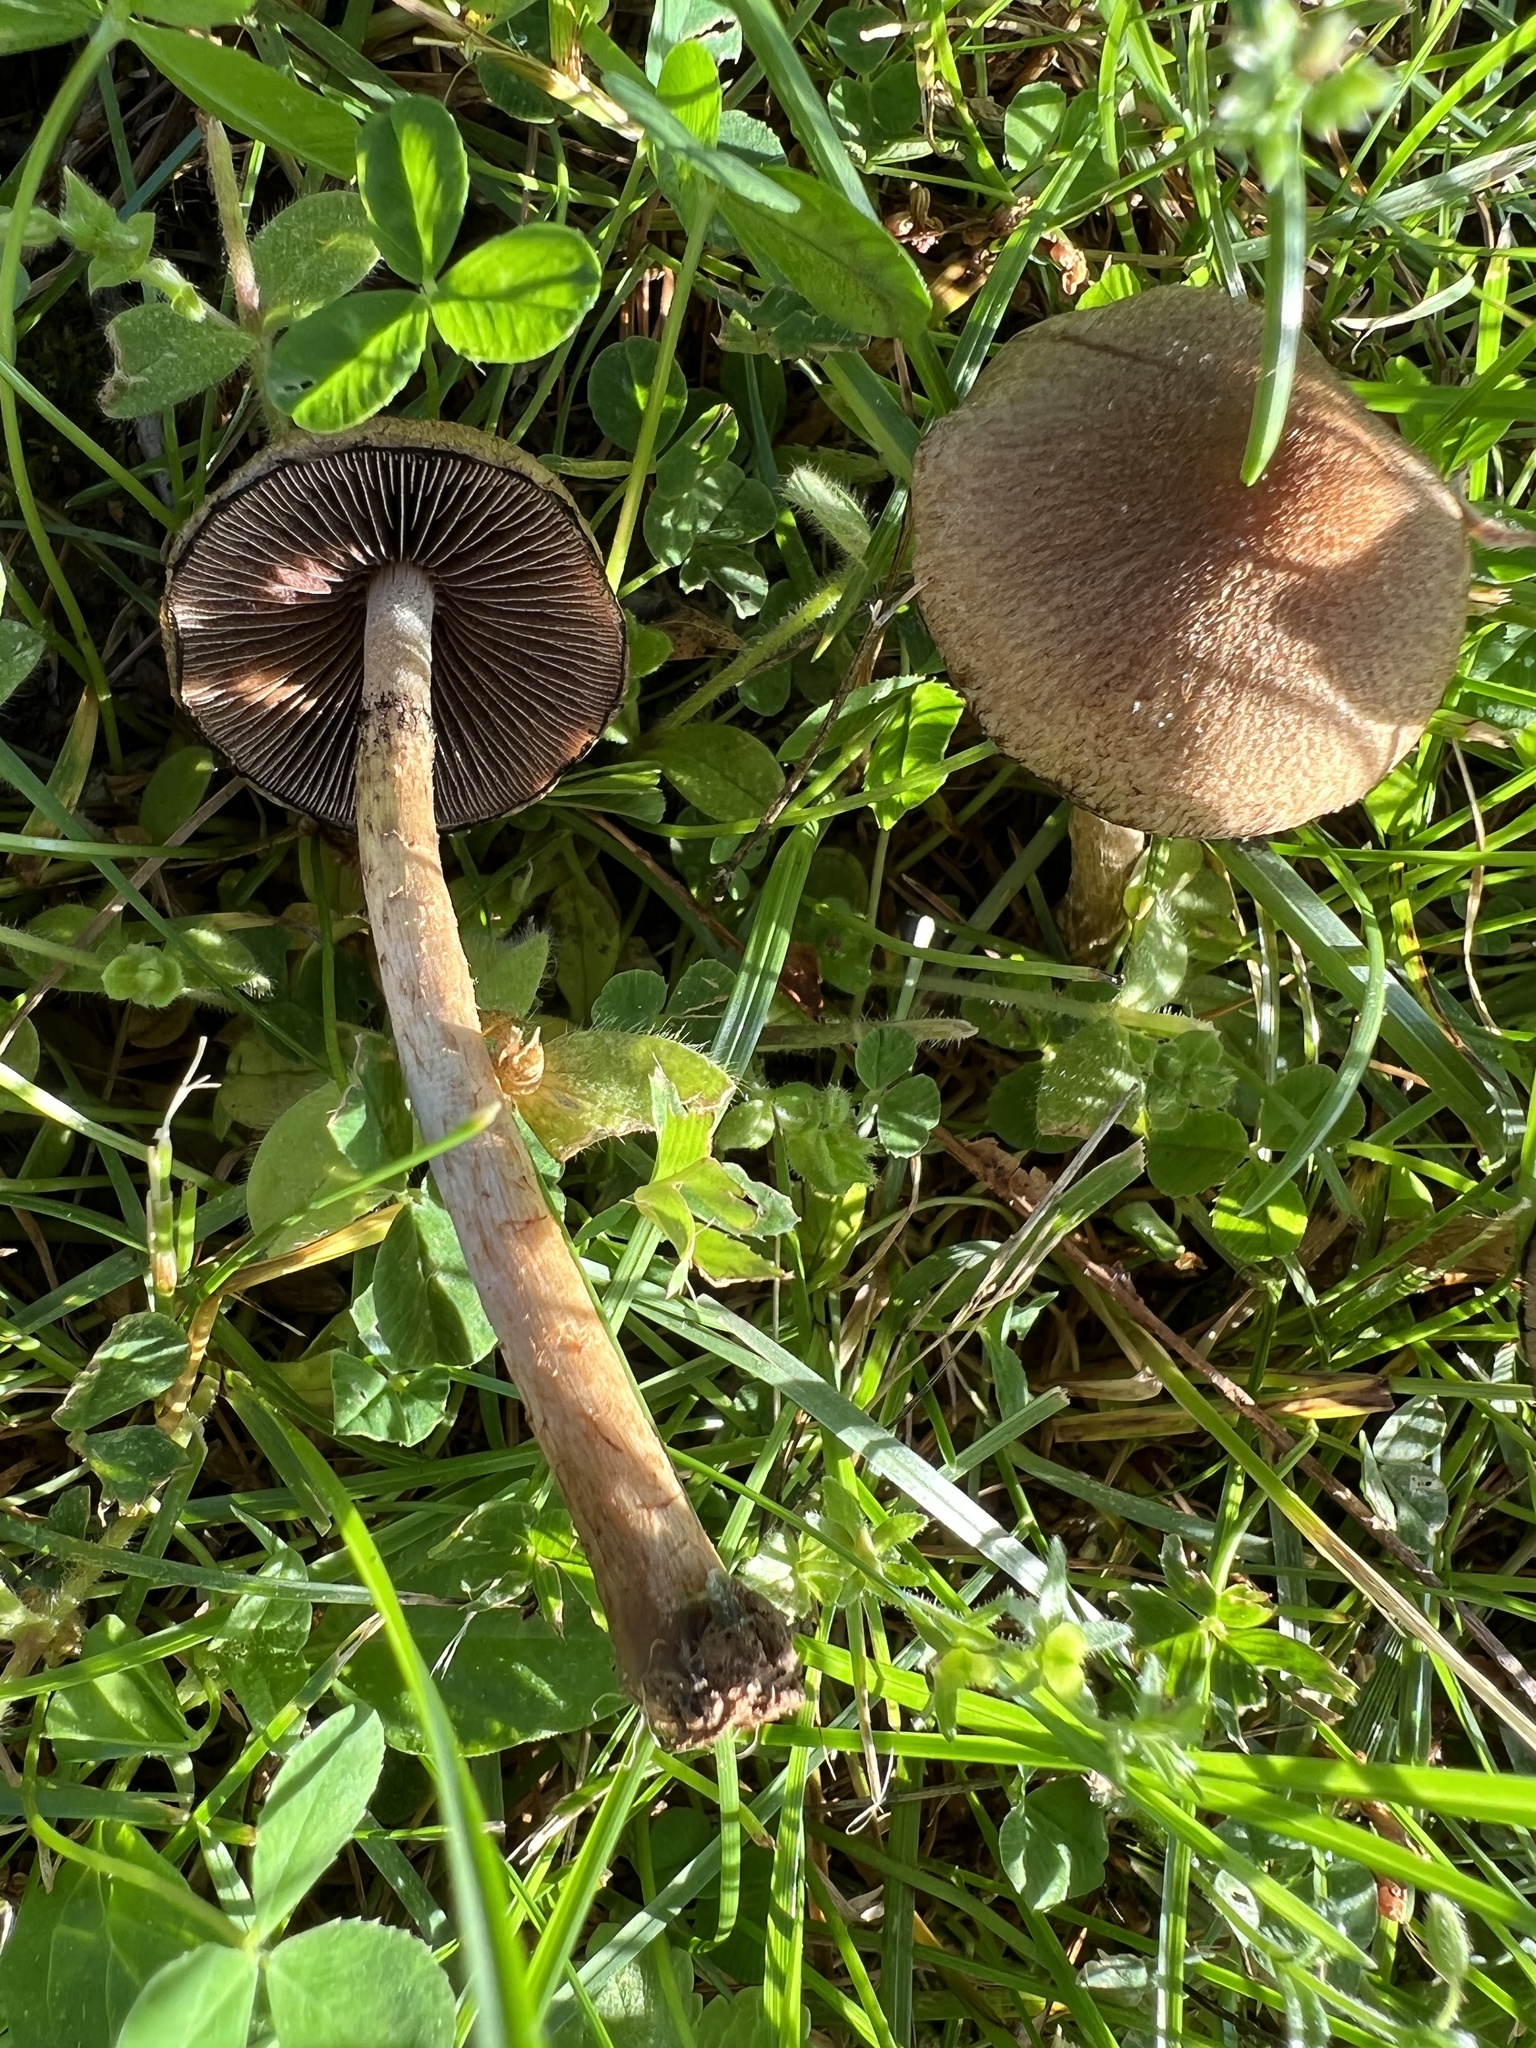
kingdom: Fungi
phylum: Basidiomycota
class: Agaricomycetes
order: Agaricales
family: Psathyrellaceae
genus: Lacrymaria
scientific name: Lacrymaria lacrymabunda
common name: Weeping widow
